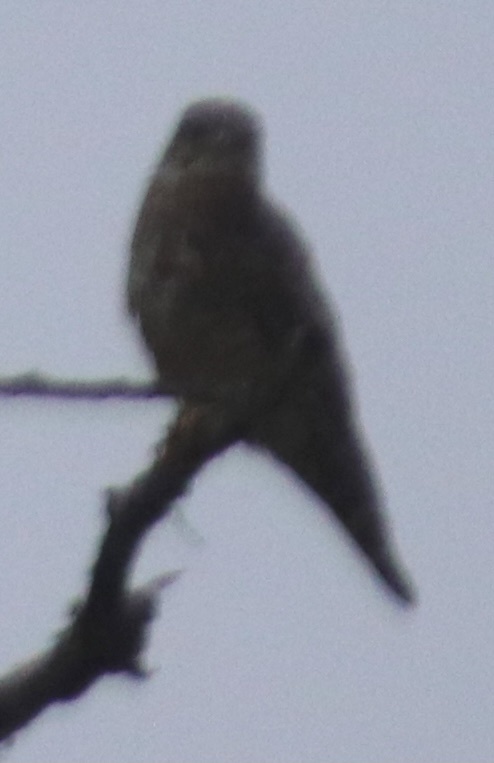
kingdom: Animalia
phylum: Chordata
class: Aves
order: Falconiformes
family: Falconidae
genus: Falco
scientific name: Falco columbarius
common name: Merlin
